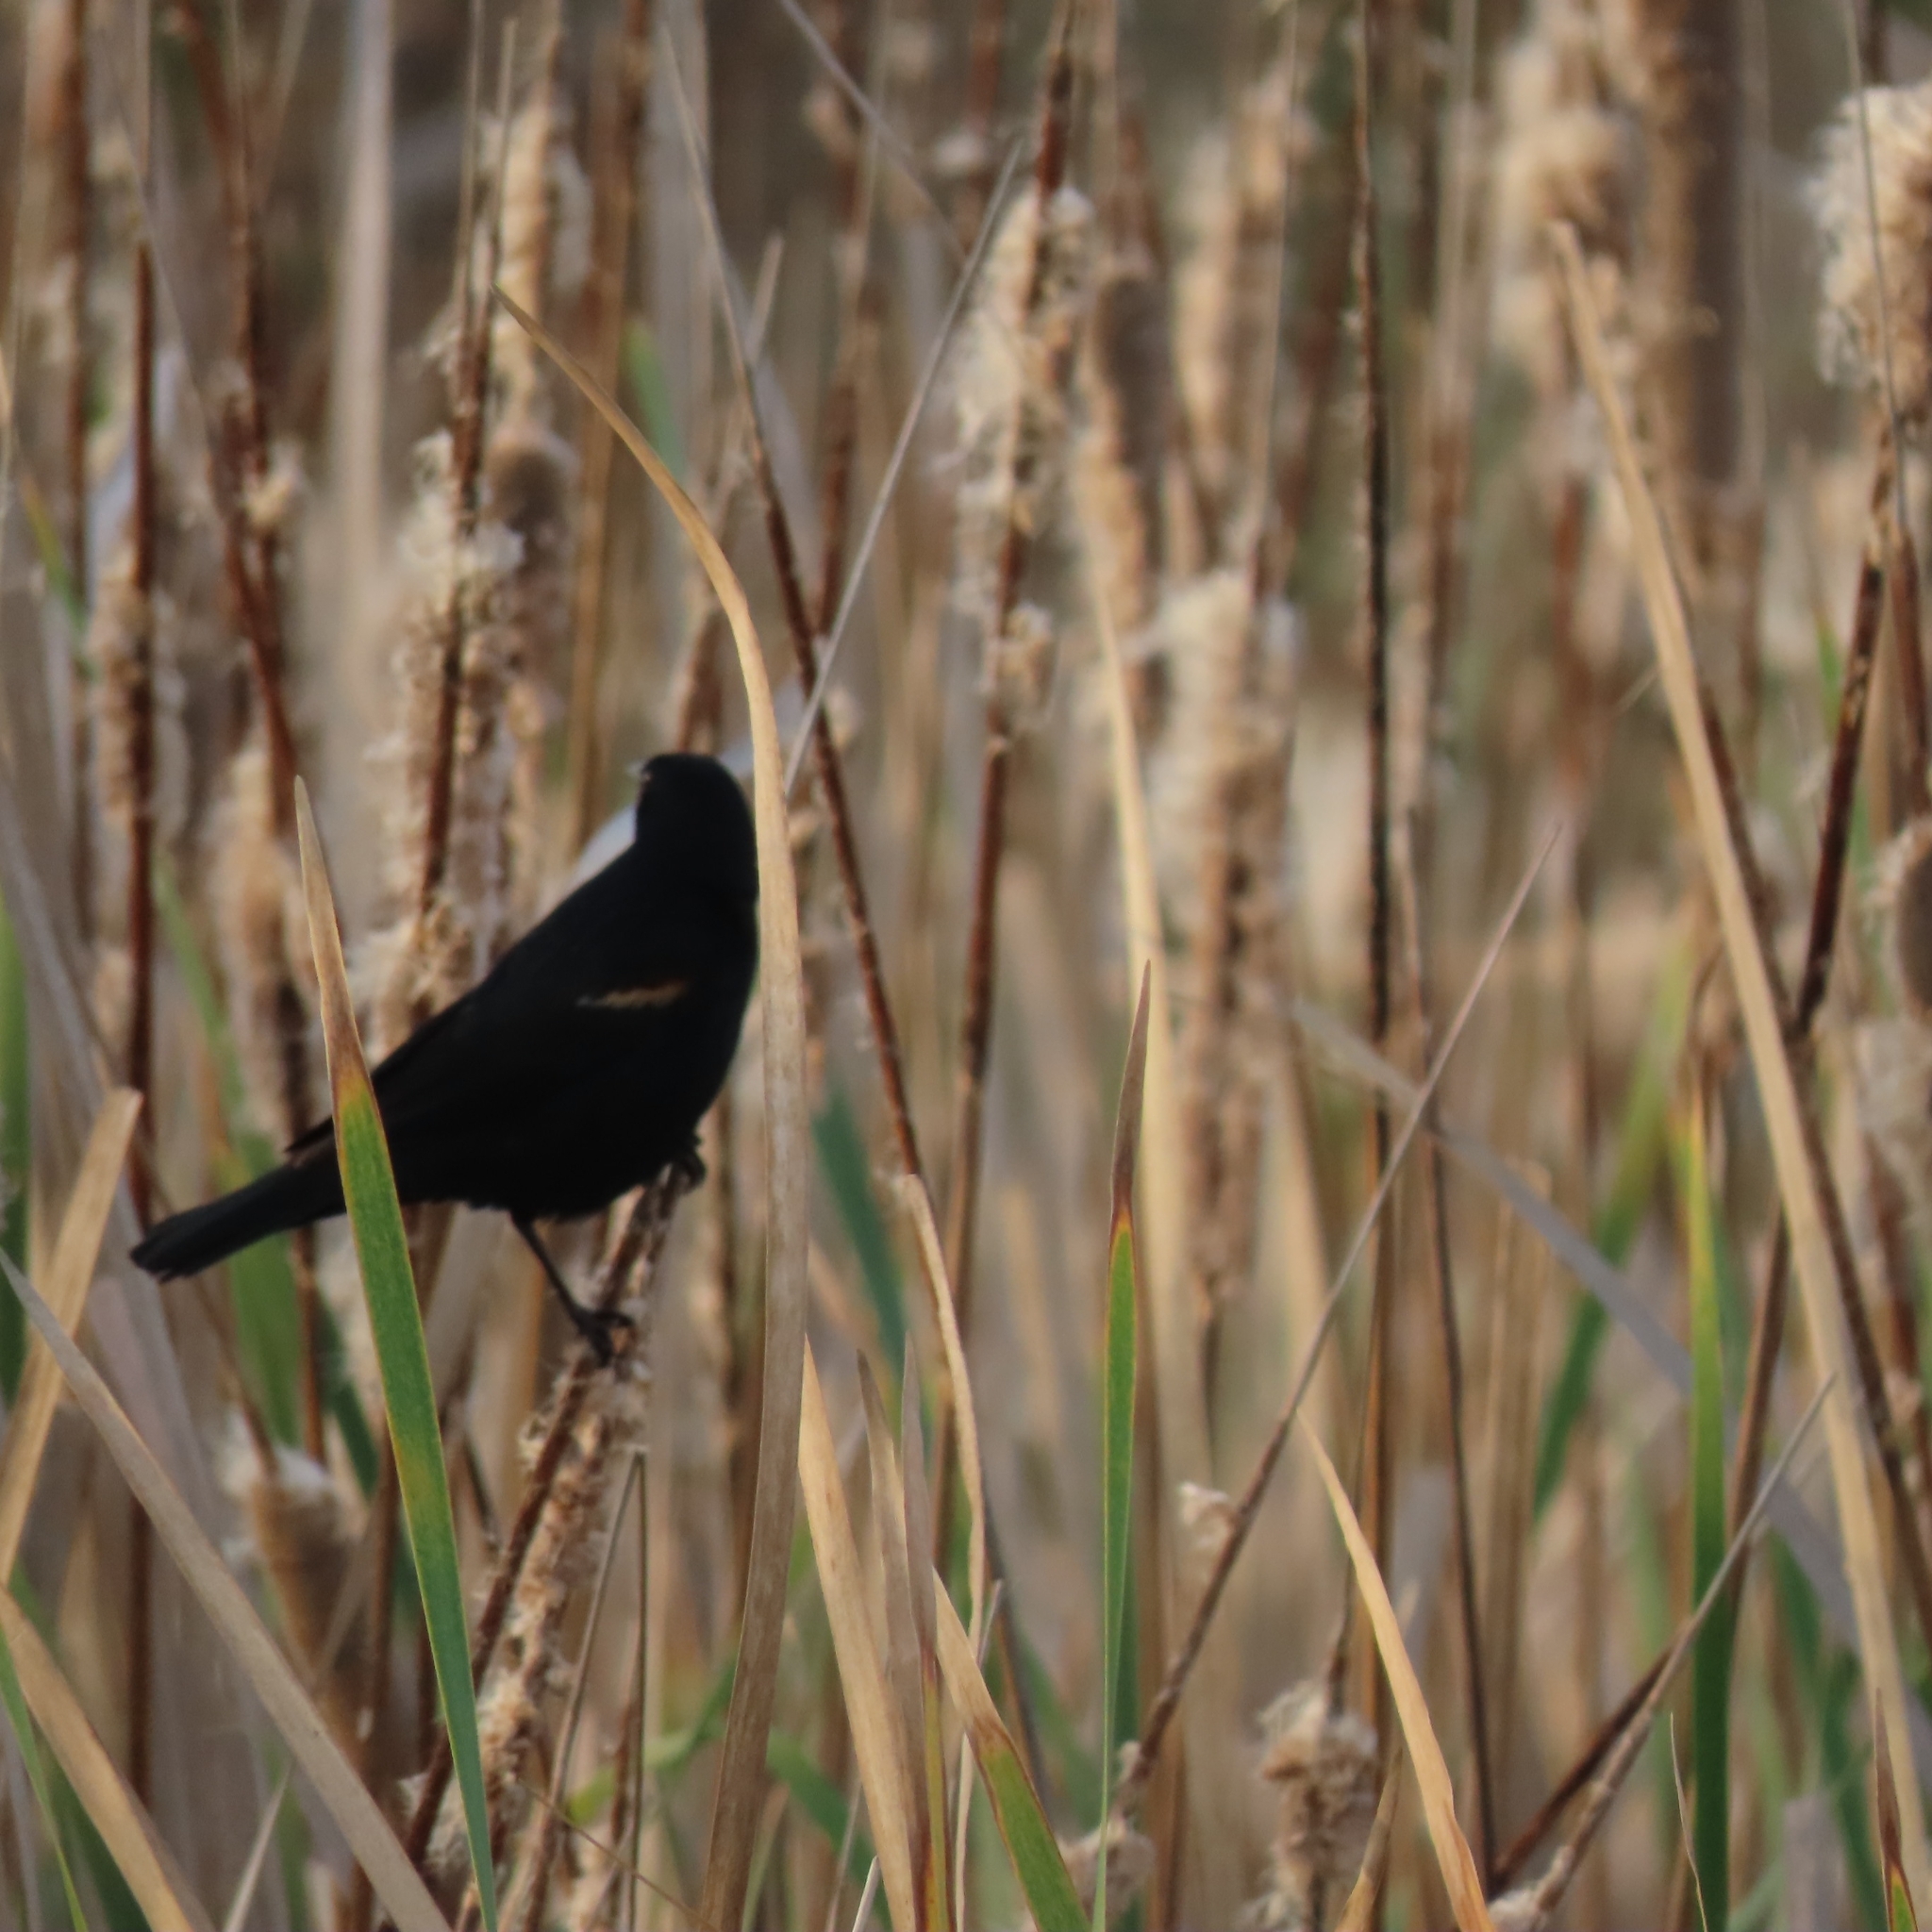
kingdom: Animalia
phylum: Chordata
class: Aves
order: Passeriformes
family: Icteridae
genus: Agelaius
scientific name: Agelaius phoeniceus
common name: Red-winged blackbird
